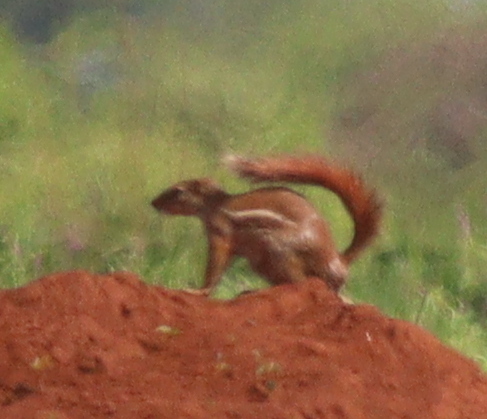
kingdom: Animalia
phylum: Chordata
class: Mammalia
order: Rodentia
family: Sciuridae
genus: Xerus
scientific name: Xerus erythropus
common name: Striped ground squirrel
